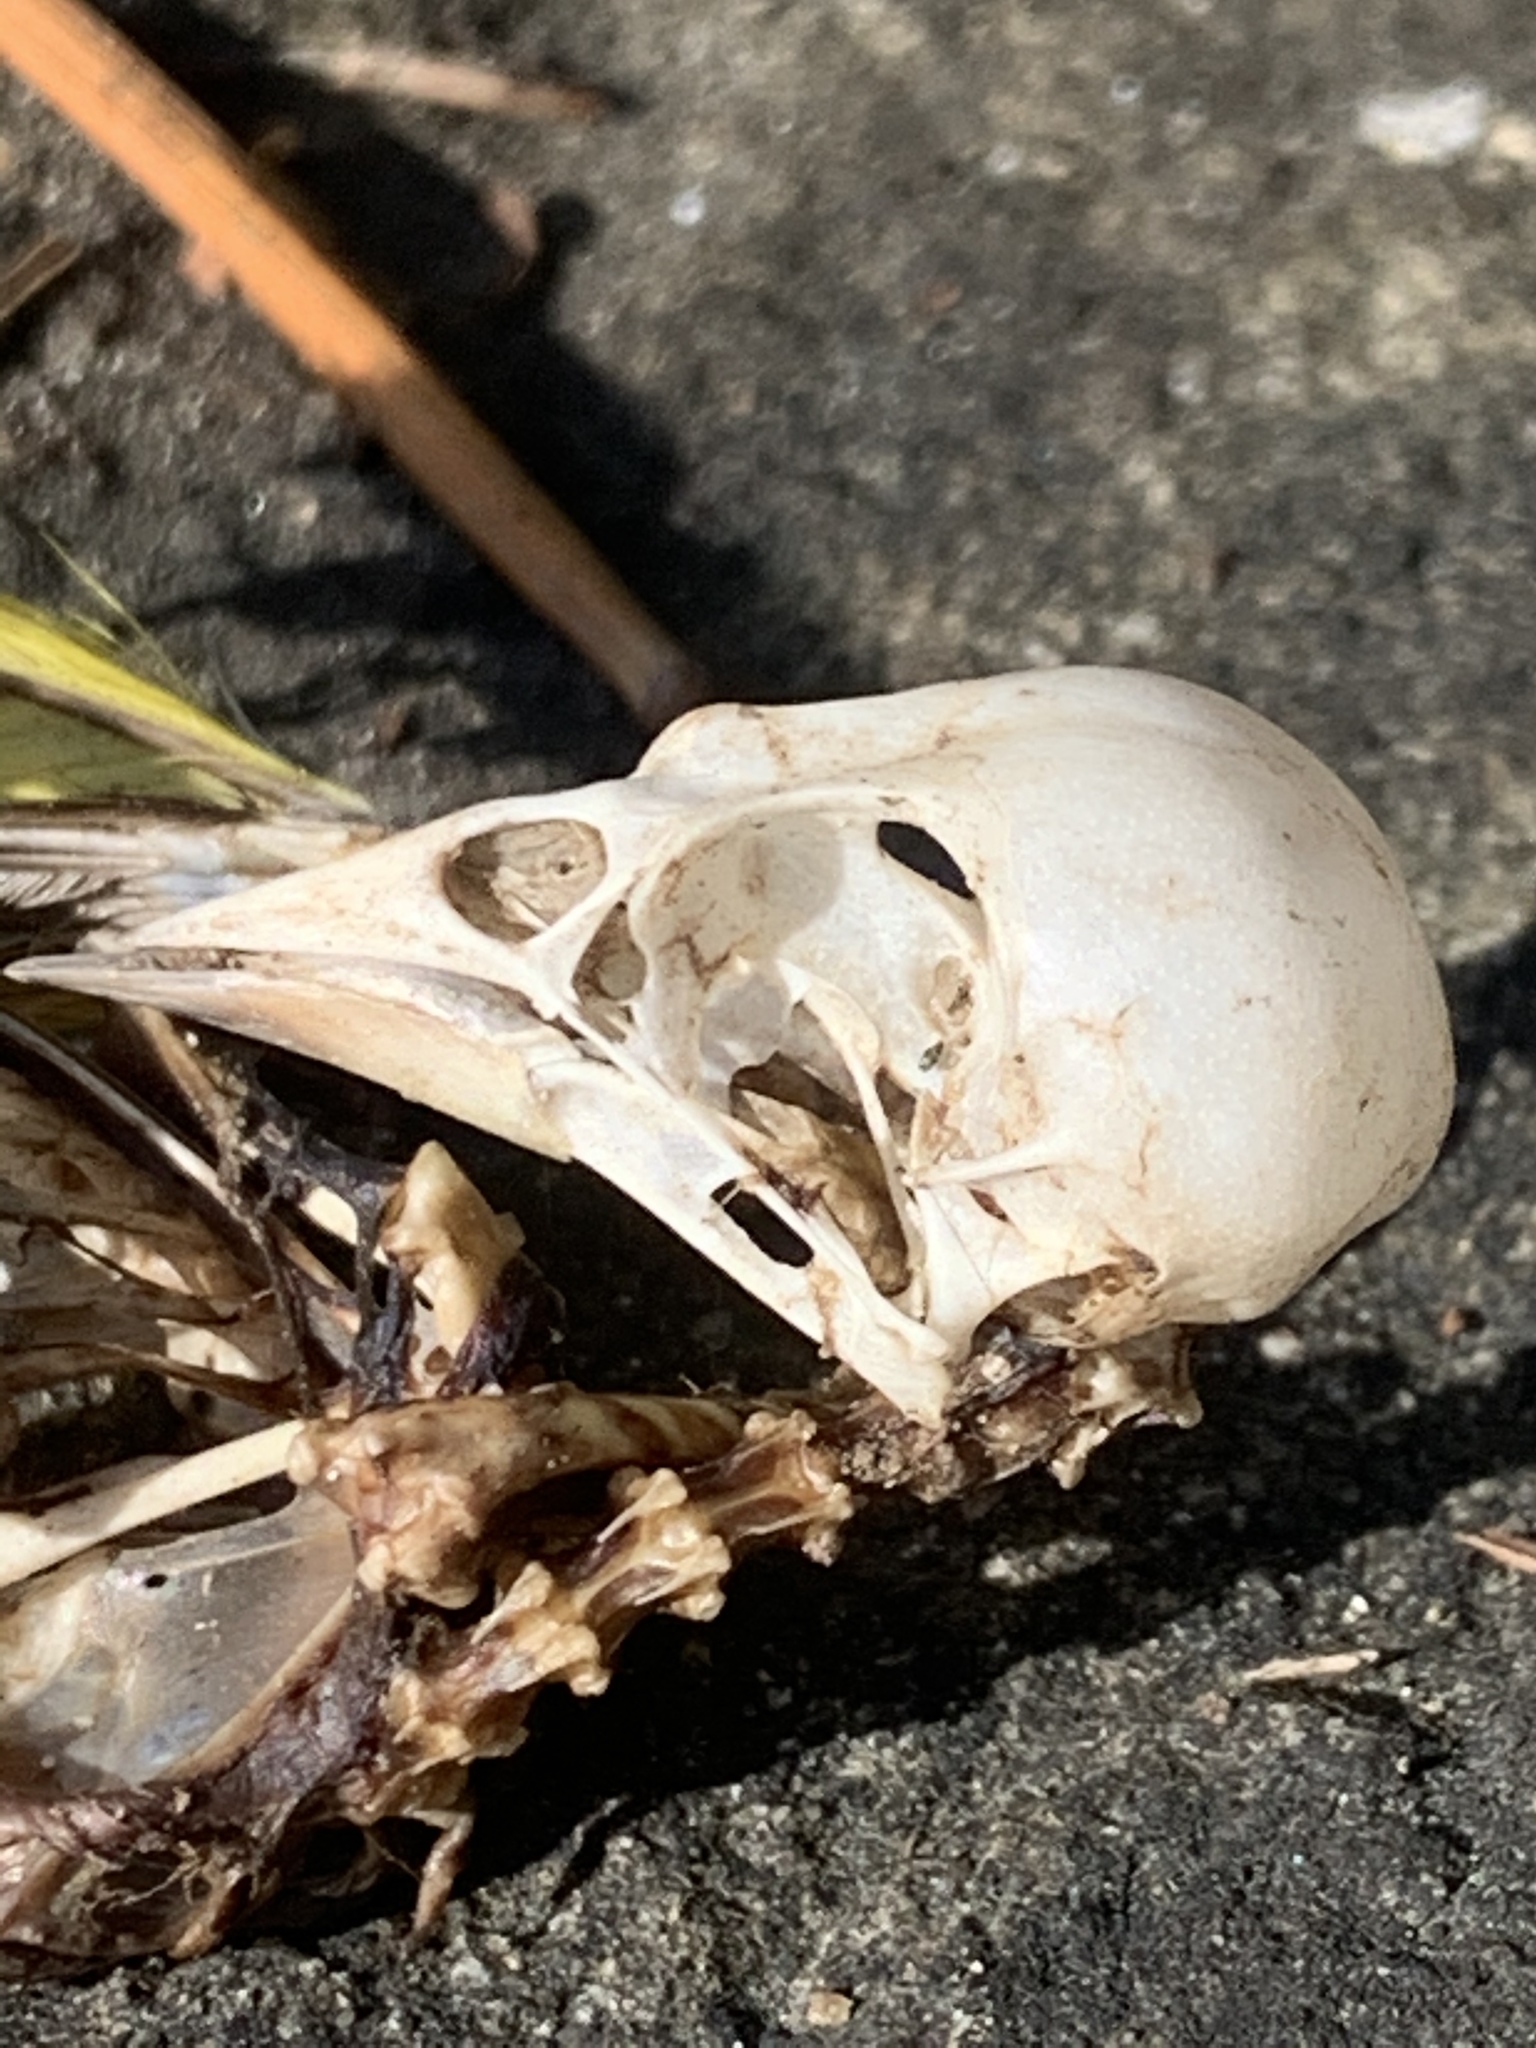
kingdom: Animalia
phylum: Chordata
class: Aves
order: Passeriformes
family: Fringillidae
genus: Spinus
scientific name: Spinus pinus
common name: Pine siskin
